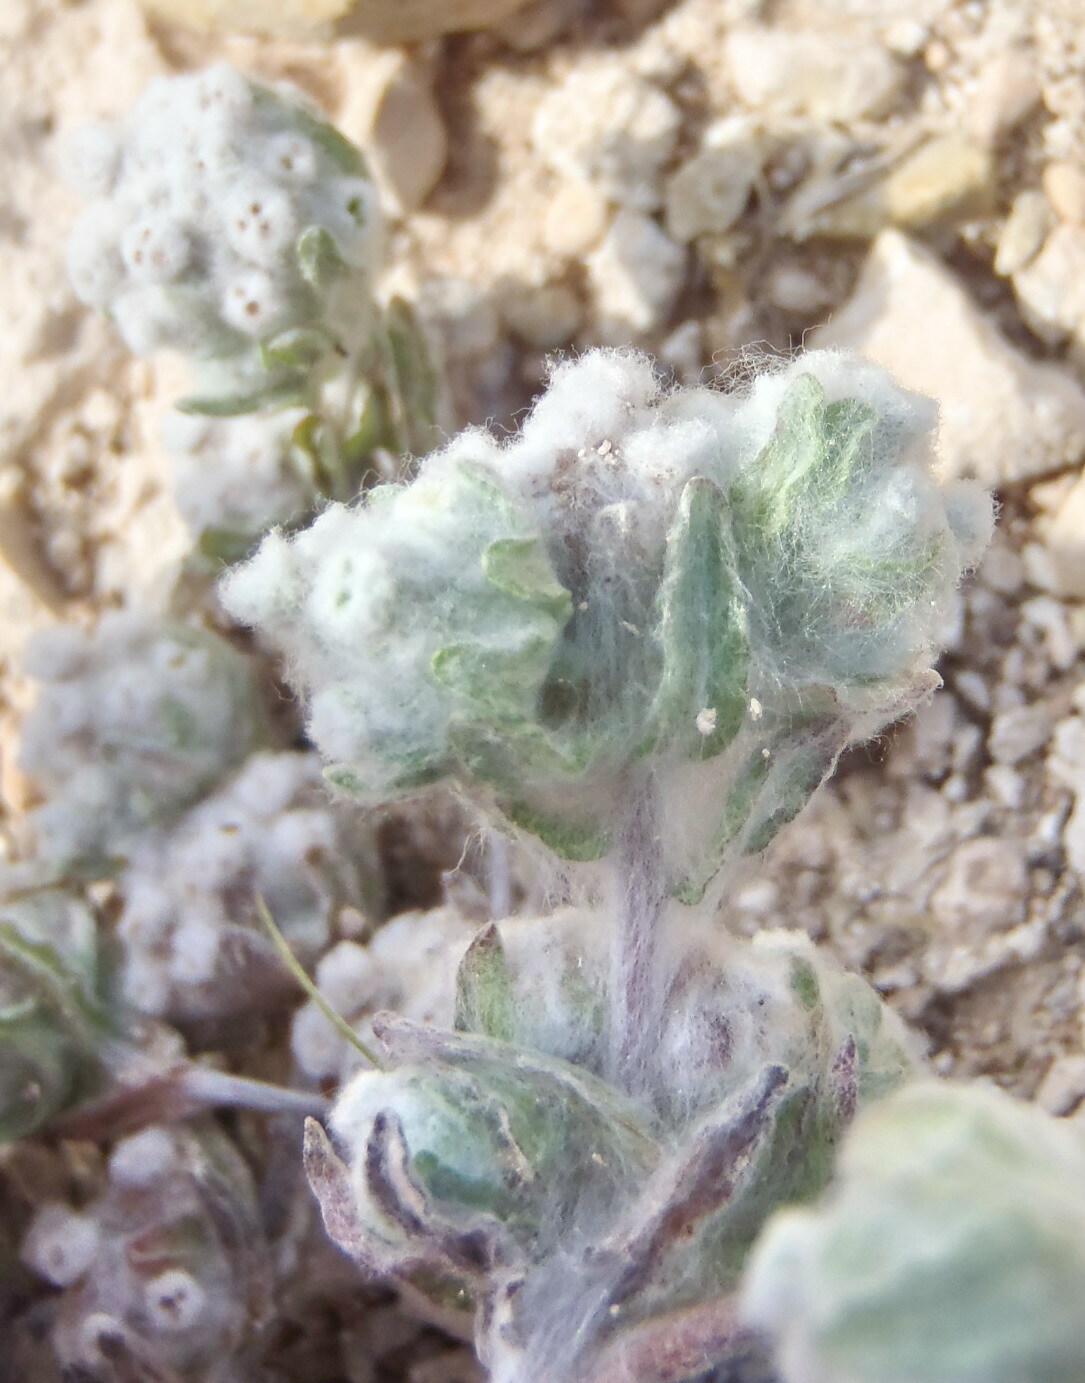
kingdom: Plantae
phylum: Tracheophyta
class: Magnoliopsida
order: Asterales
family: Asteraceae
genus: Diaperia
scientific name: Diaperia verna
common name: Many-stem rabbit-tobacco
